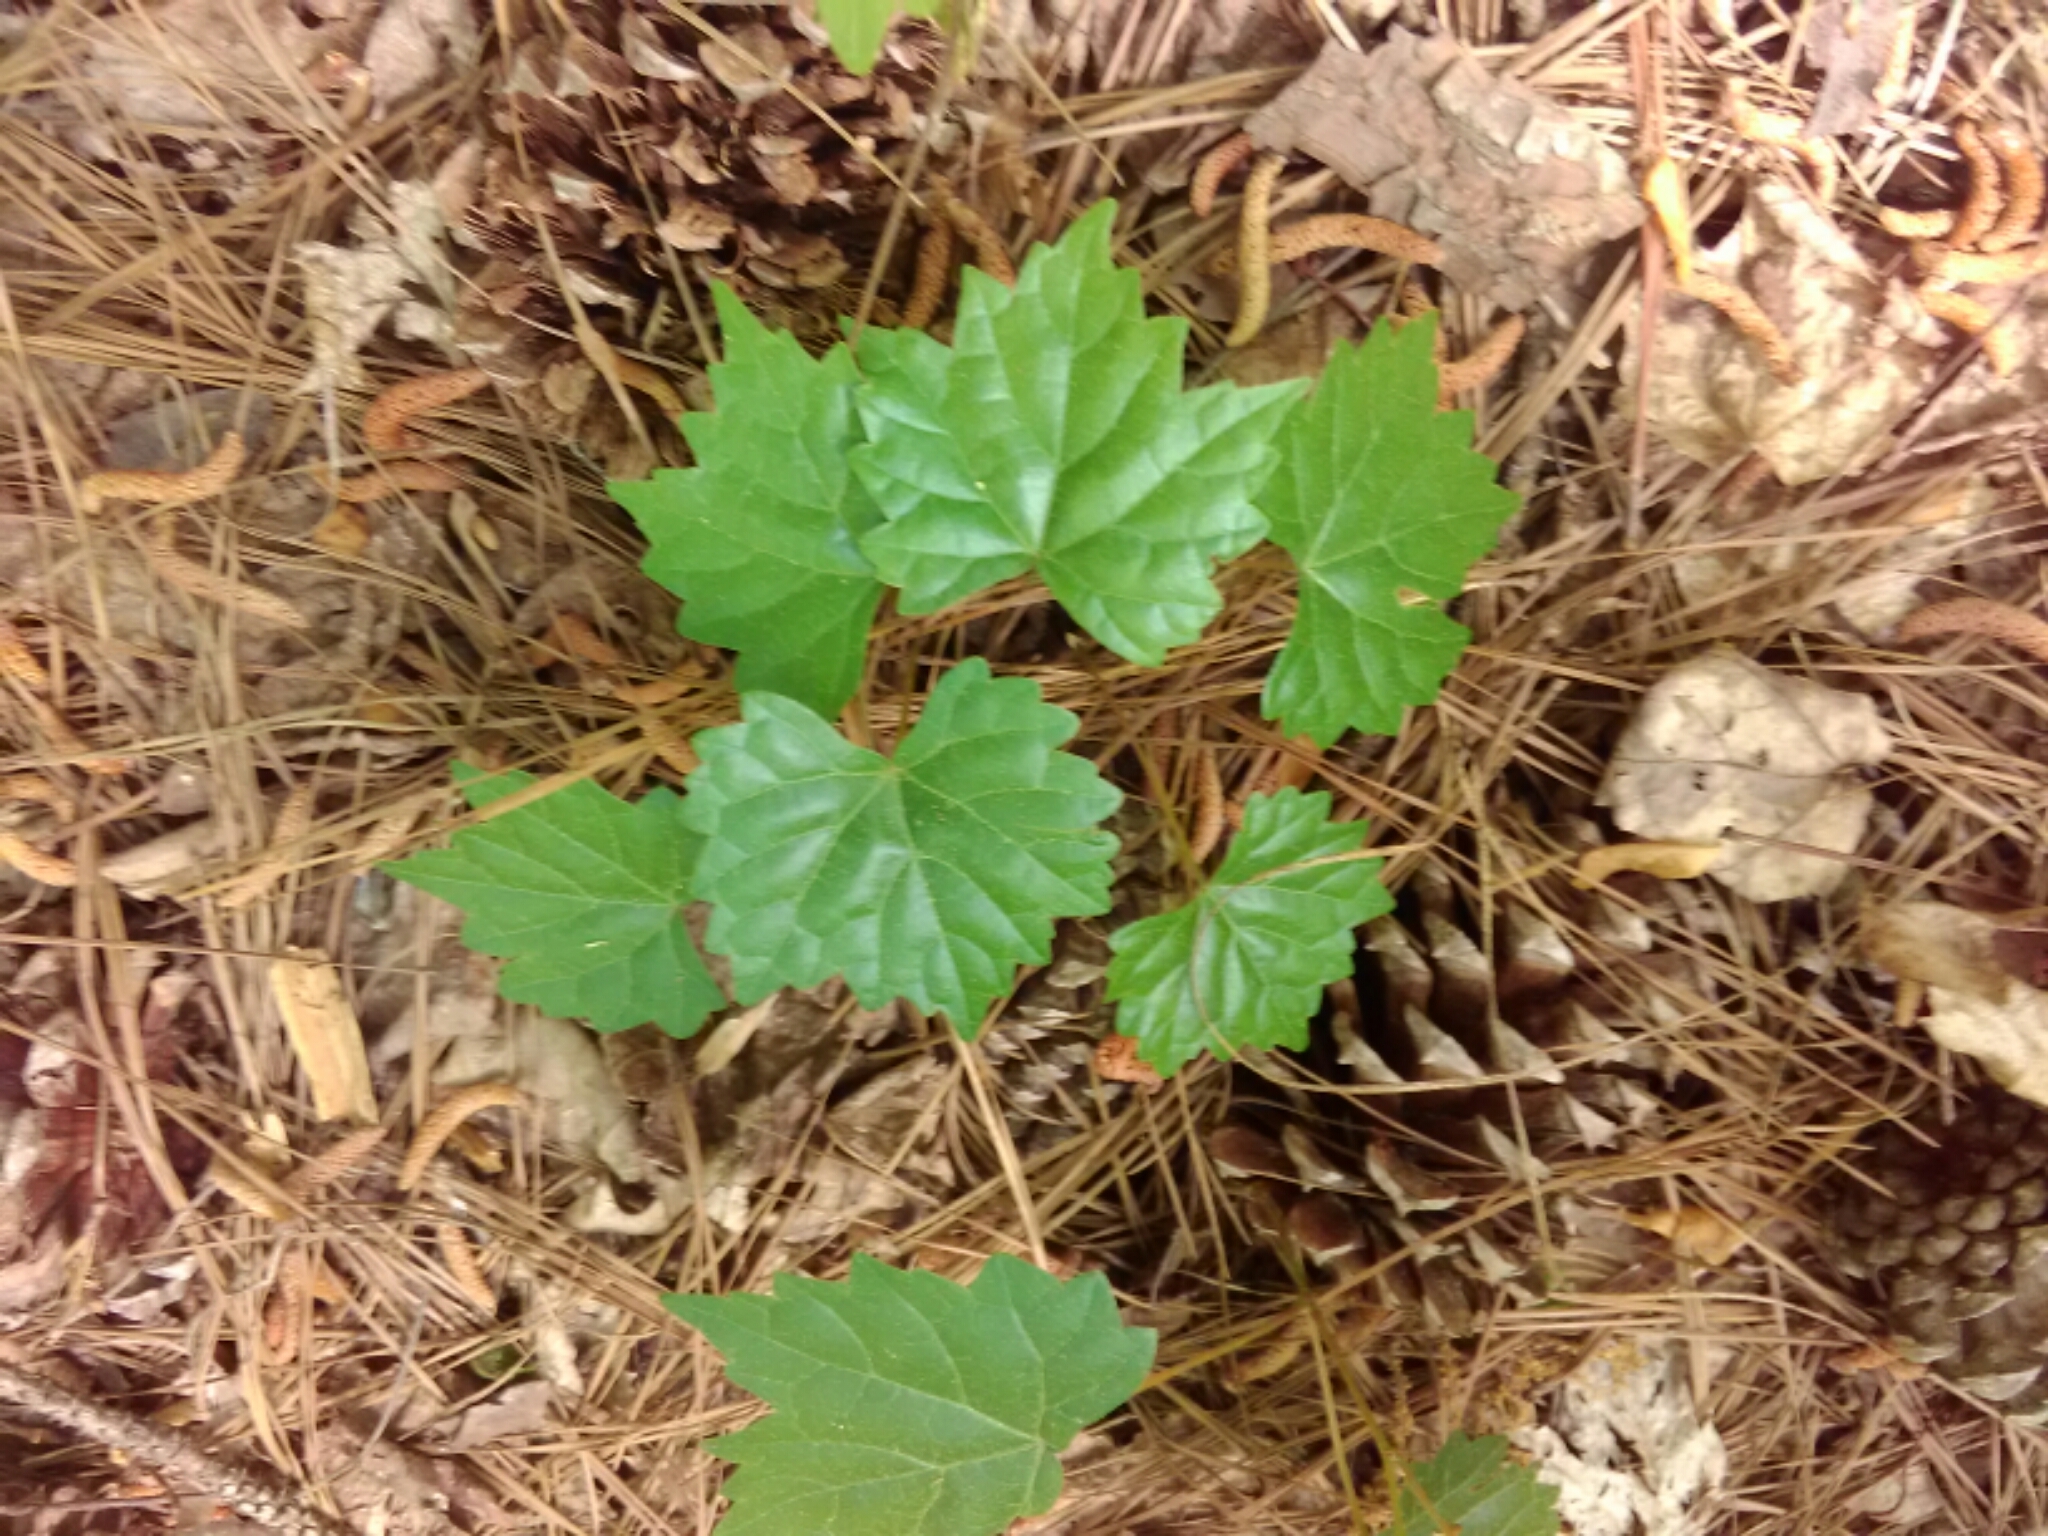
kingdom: Plantae
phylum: Tracheophyta
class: Magnoliopsida
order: Vitales
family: Vitaceae
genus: Vitis
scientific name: Vitis rotundifolia
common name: Muscadine grape
